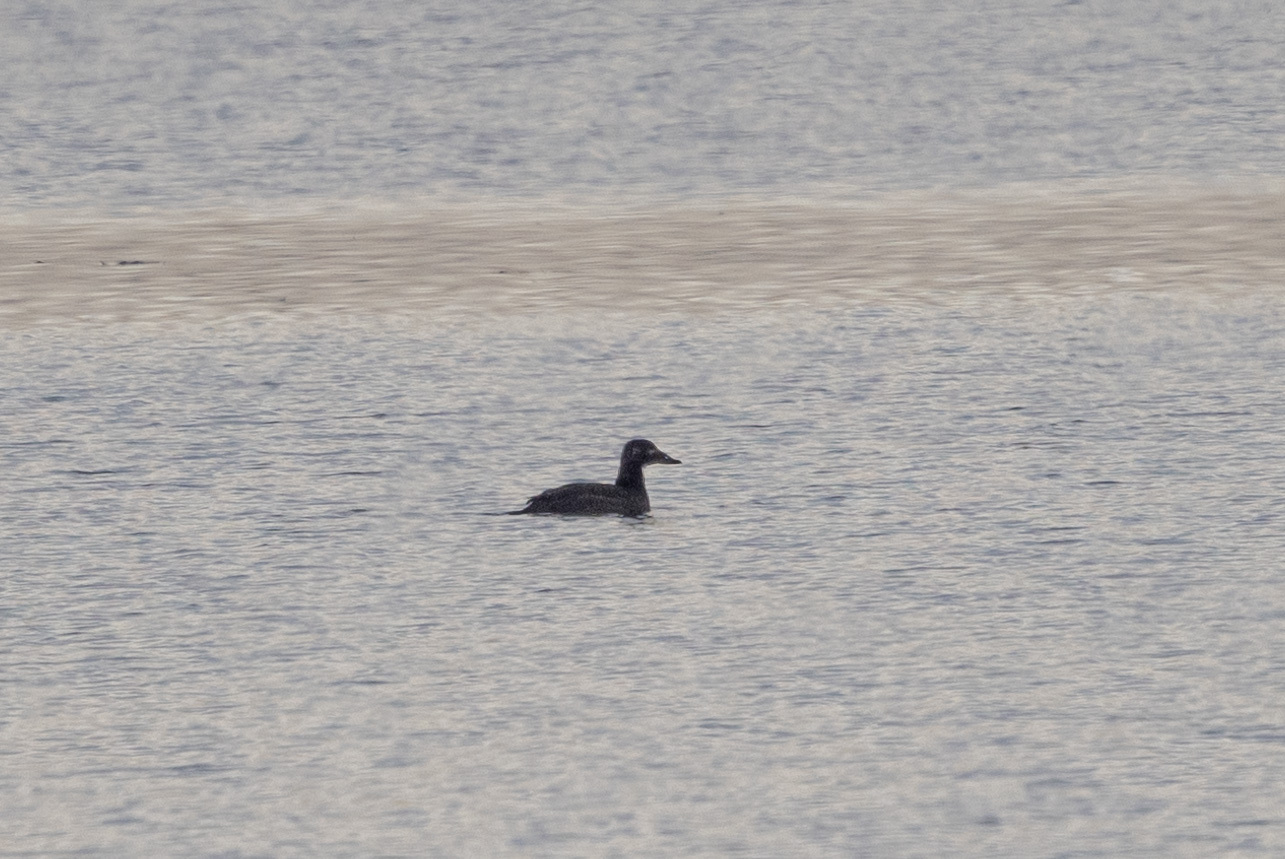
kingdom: Animalia
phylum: Chordata
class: Aves
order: Anseriformes
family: Anatidae
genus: Melanitta
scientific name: Melanitta deglandi
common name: White-winged scoter
